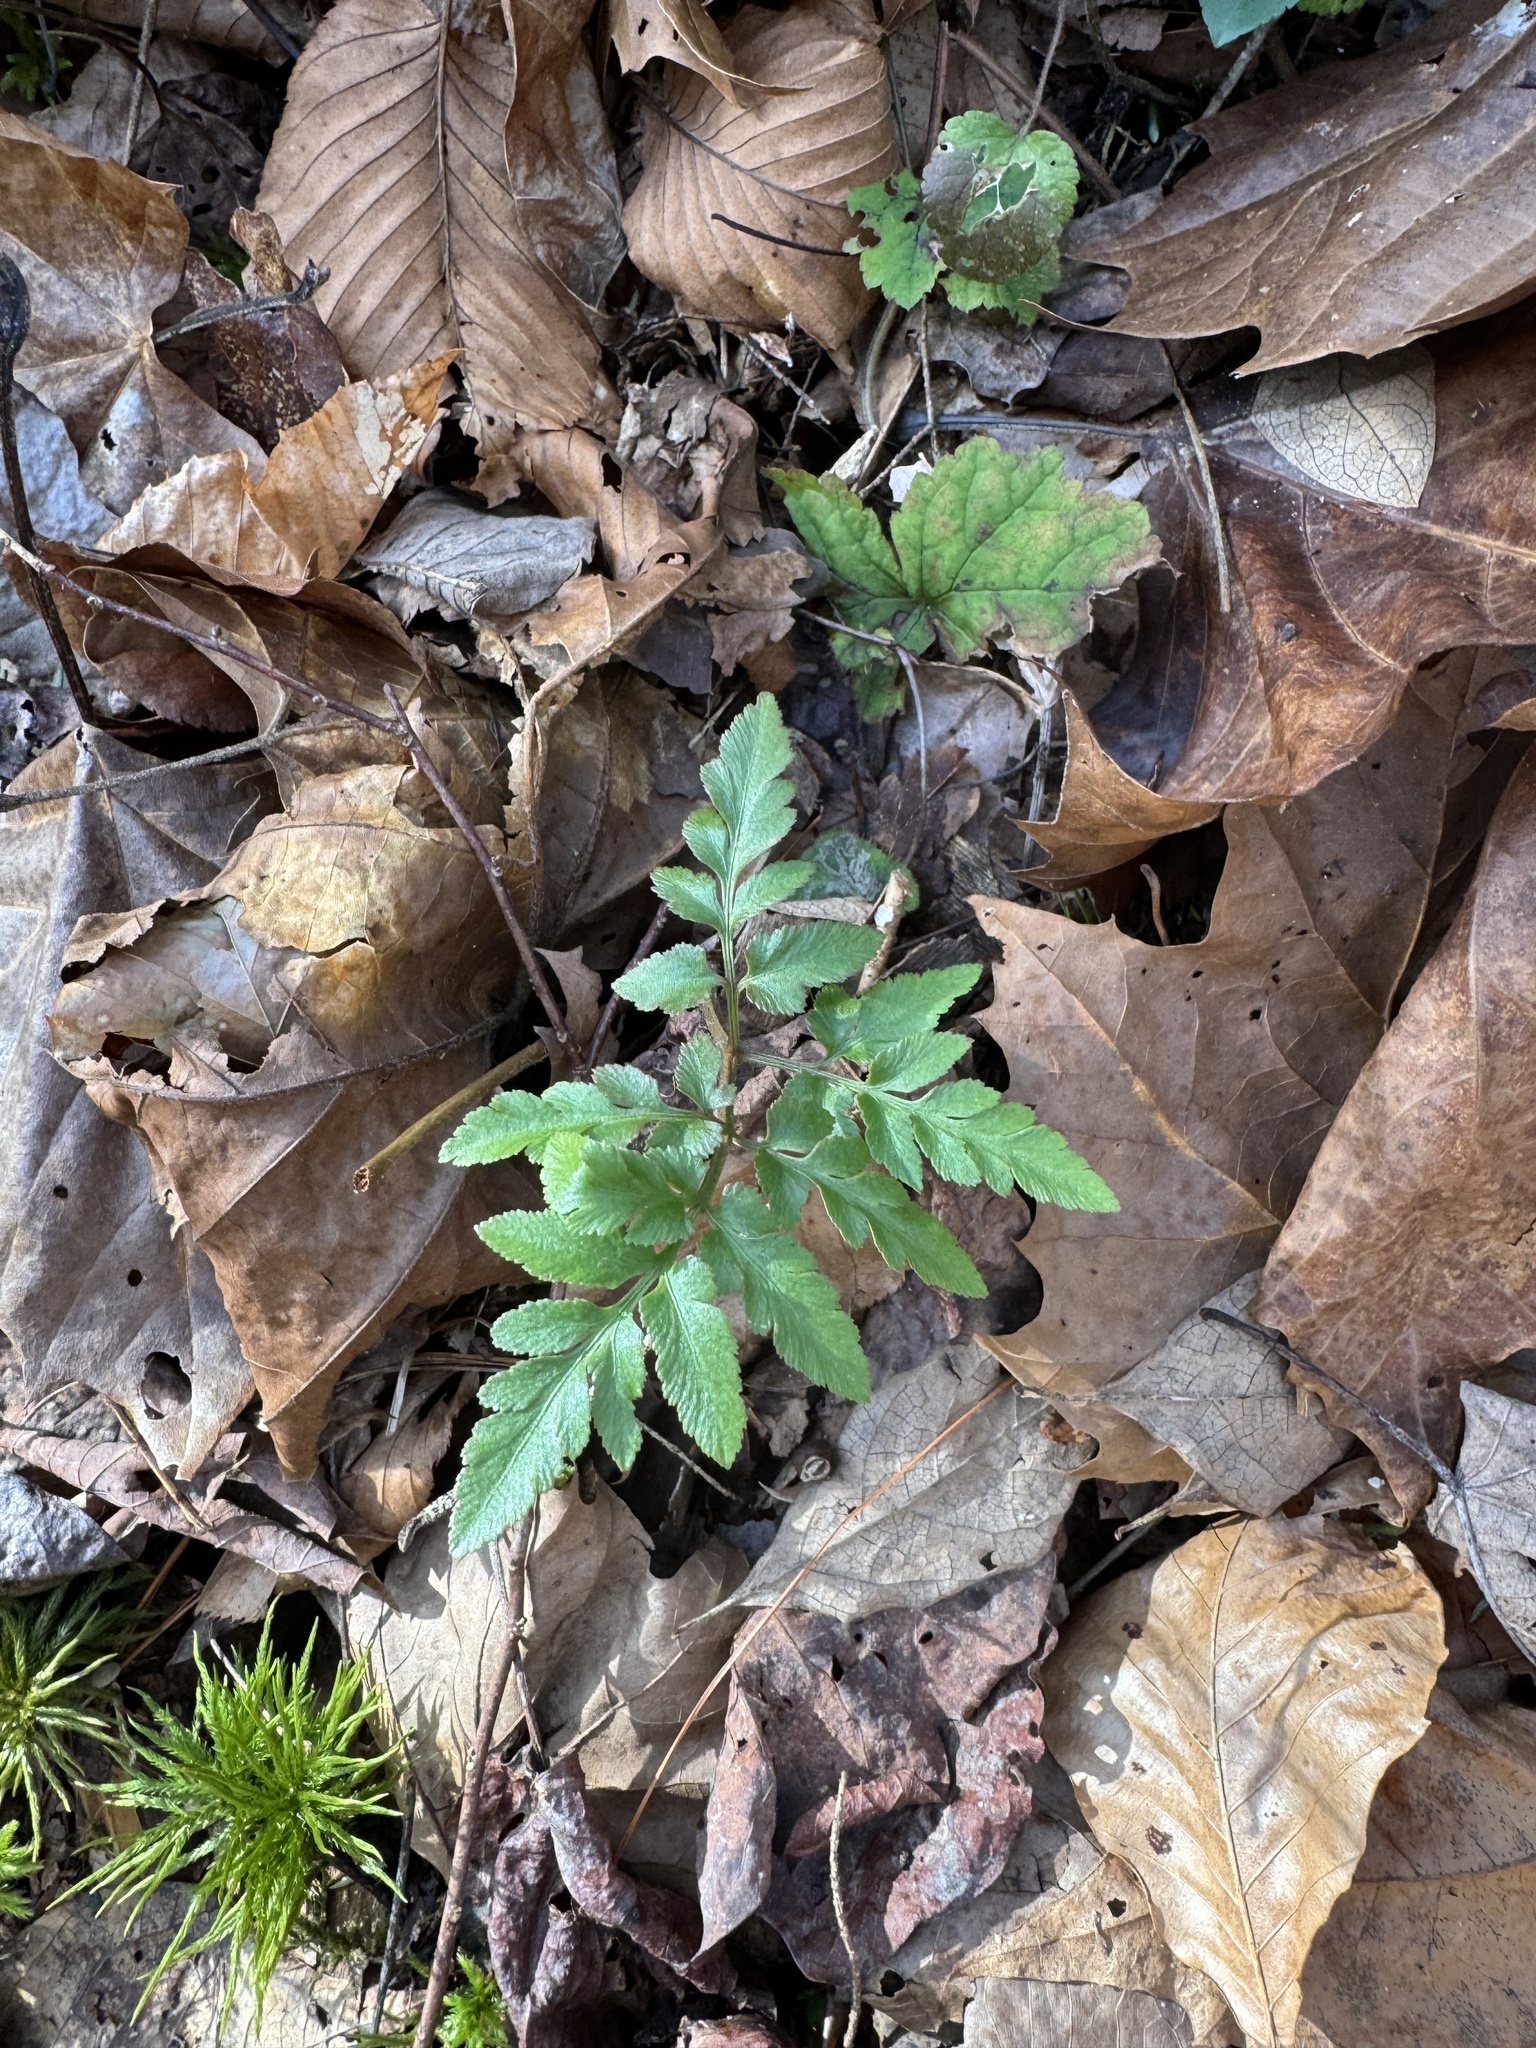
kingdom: Plantae
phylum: Tracheophyta
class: Polypodiopsida
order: Ophioglossales
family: Ophioglossaceae
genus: Sceptridium
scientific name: Sceptridium dissectum
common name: Cut-leaved grapefern
